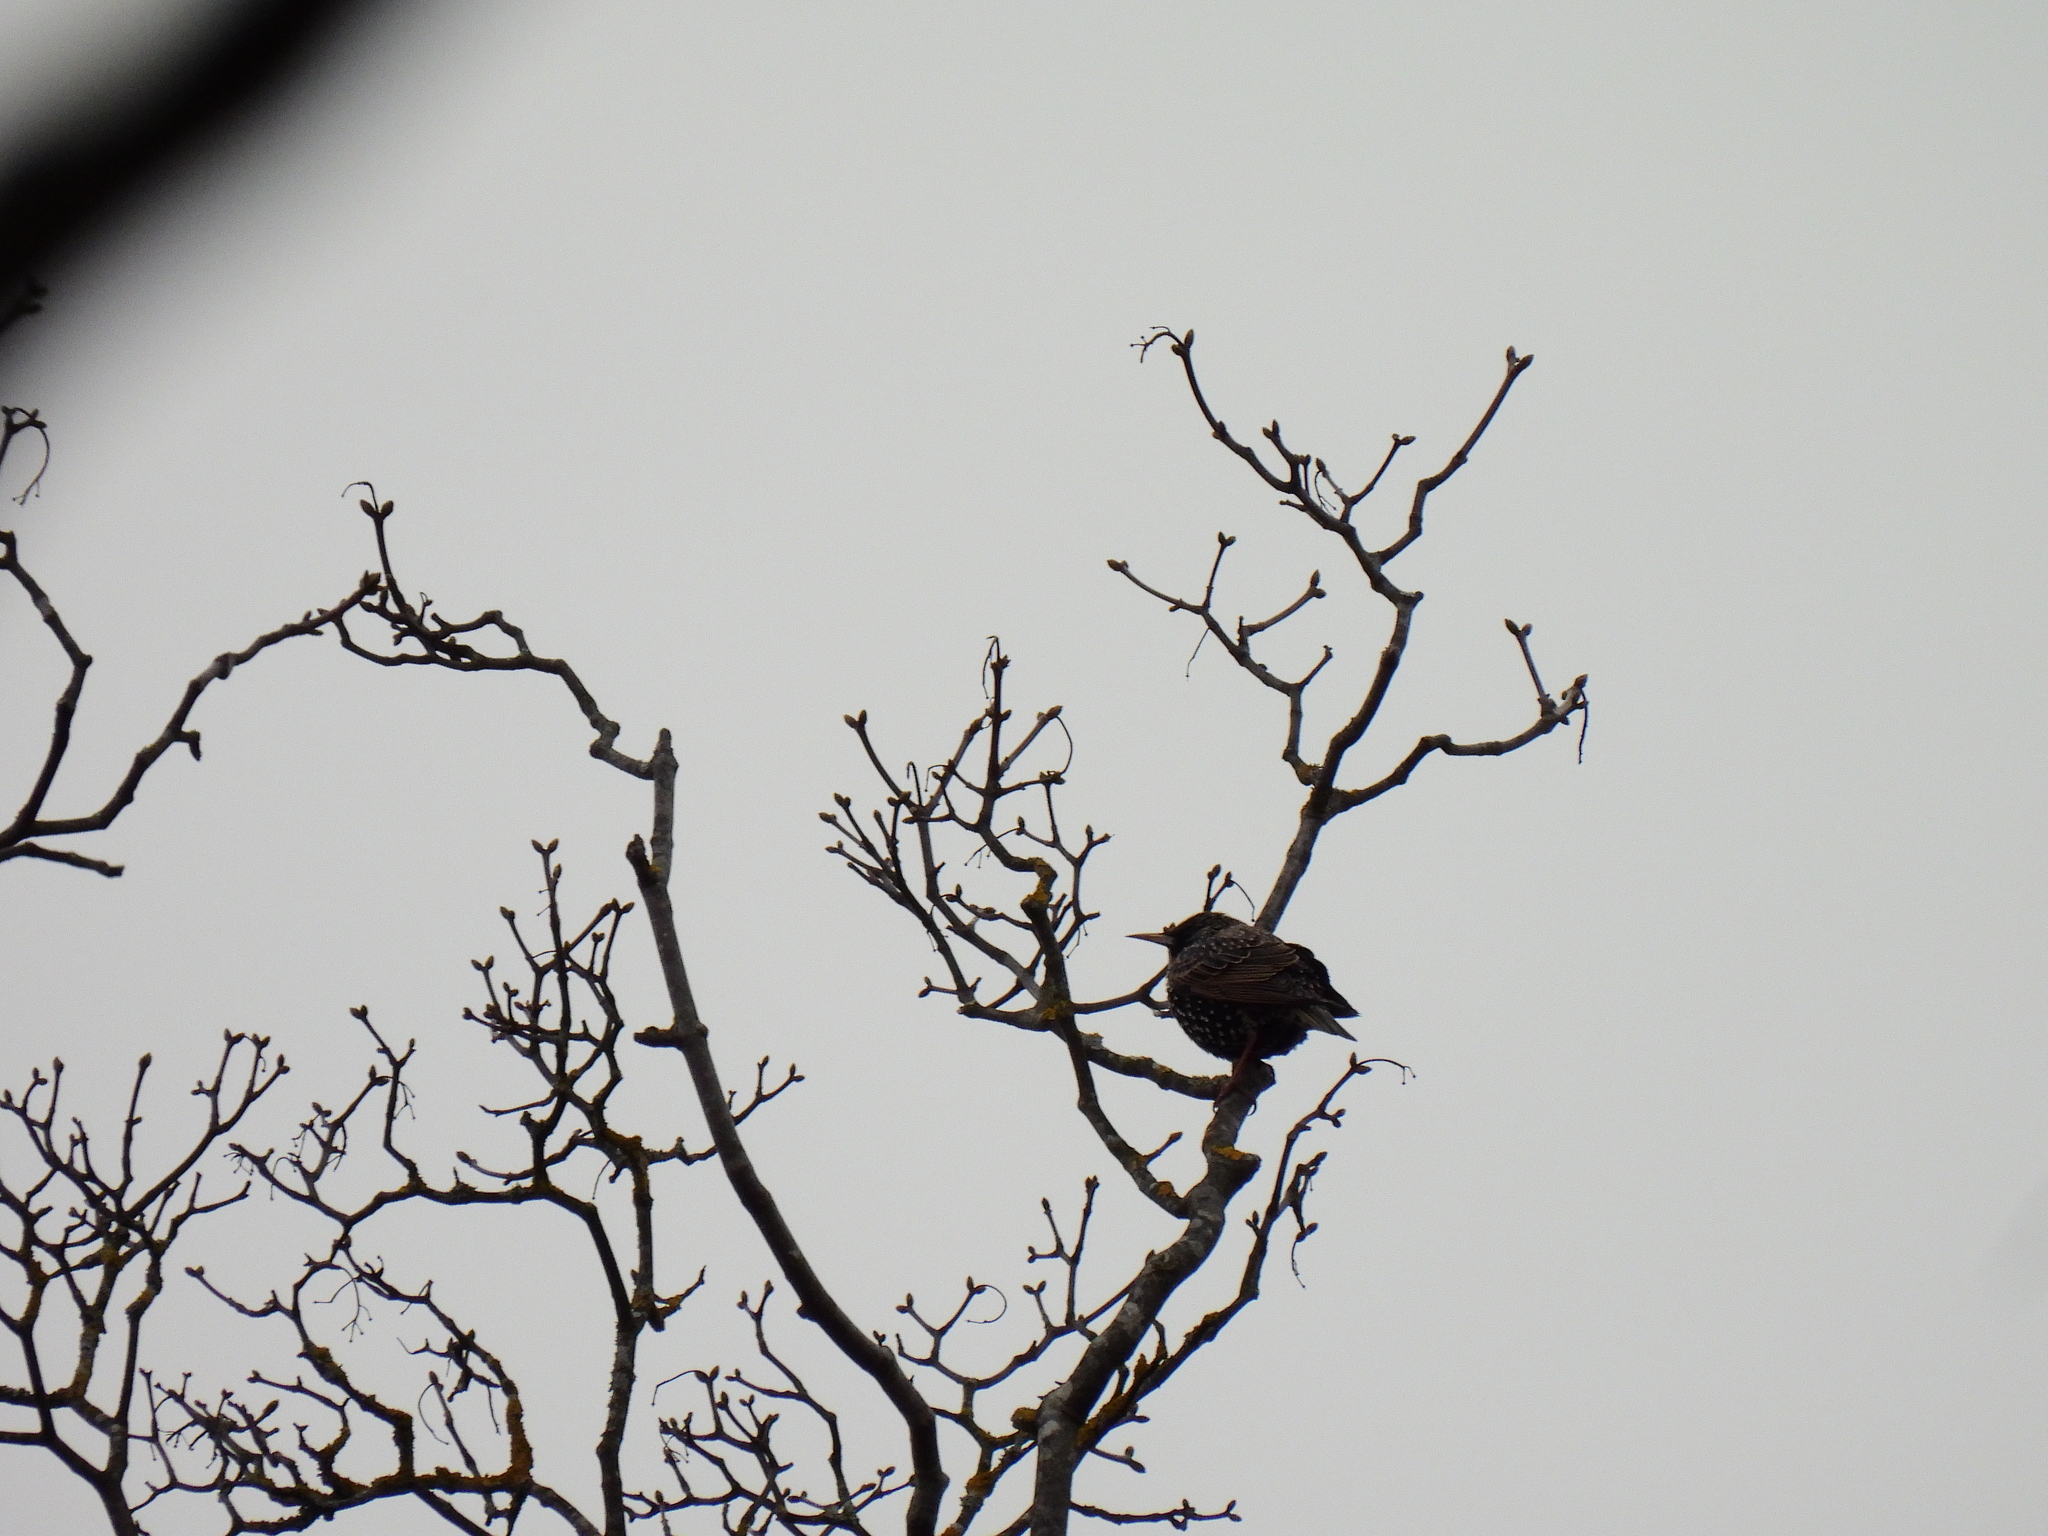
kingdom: Animalia
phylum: Chordata
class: Aves
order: Passeriformes
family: Sturnidae
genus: Sturnus
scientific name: Sturnus vulgaris
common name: Common starling
